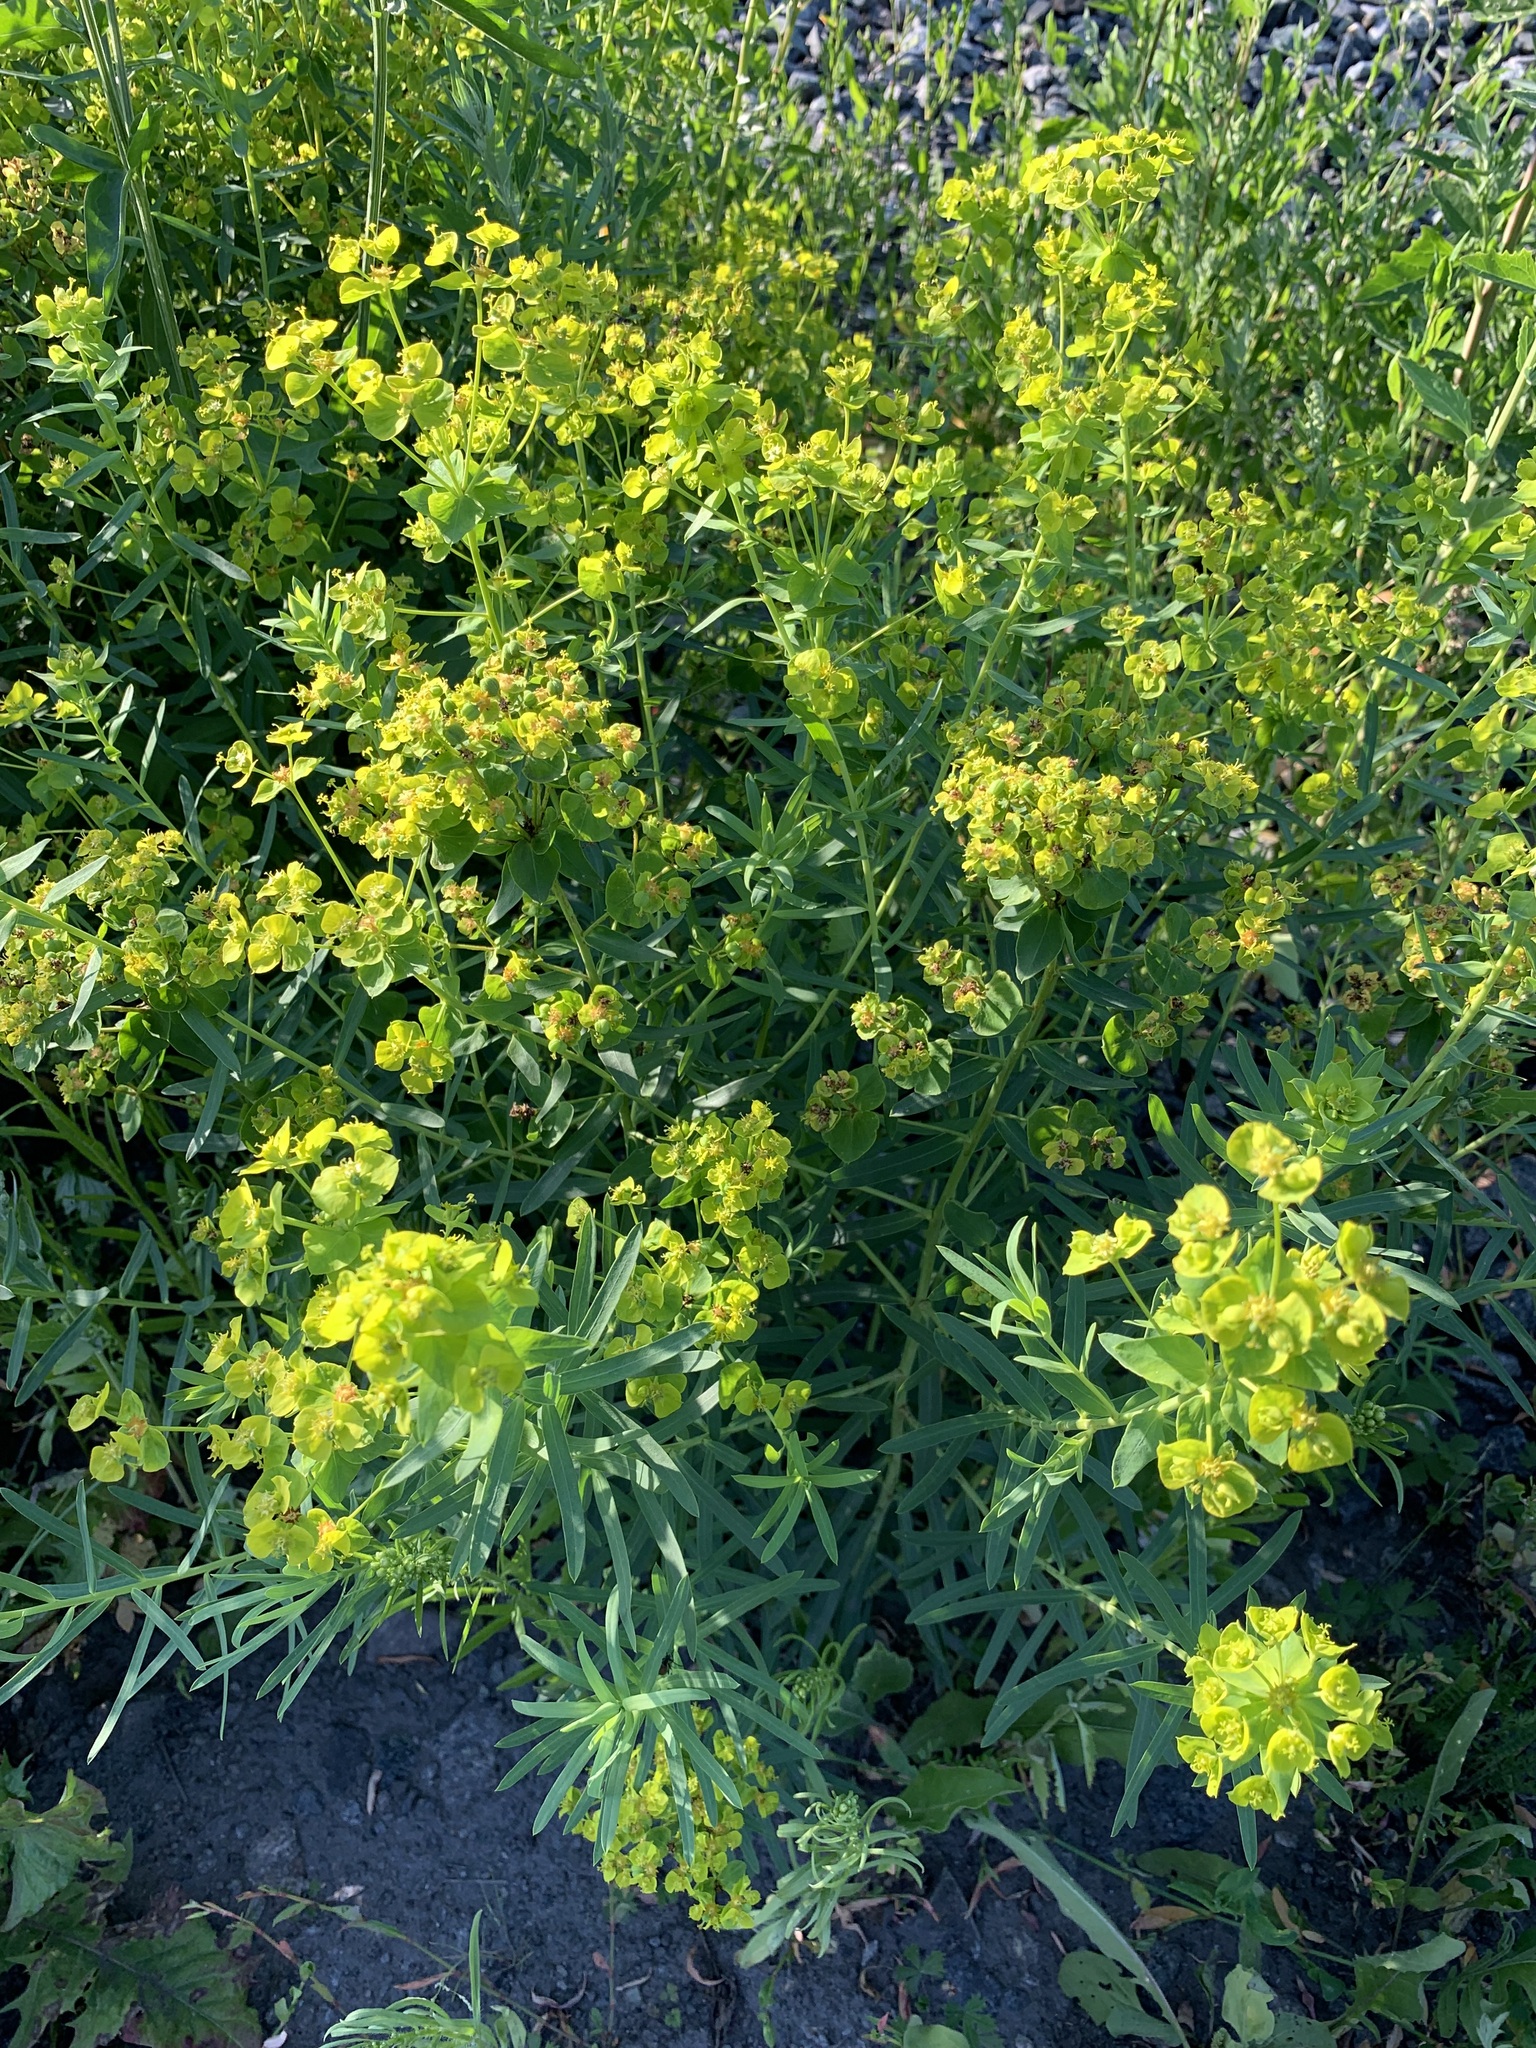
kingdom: Plantae
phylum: Tracheophyta
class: Magnoliopsida
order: Malpighiales
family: Euphorbiaceae
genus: Euphorbia
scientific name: Euphorbia virgata
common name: Leafy spurge
